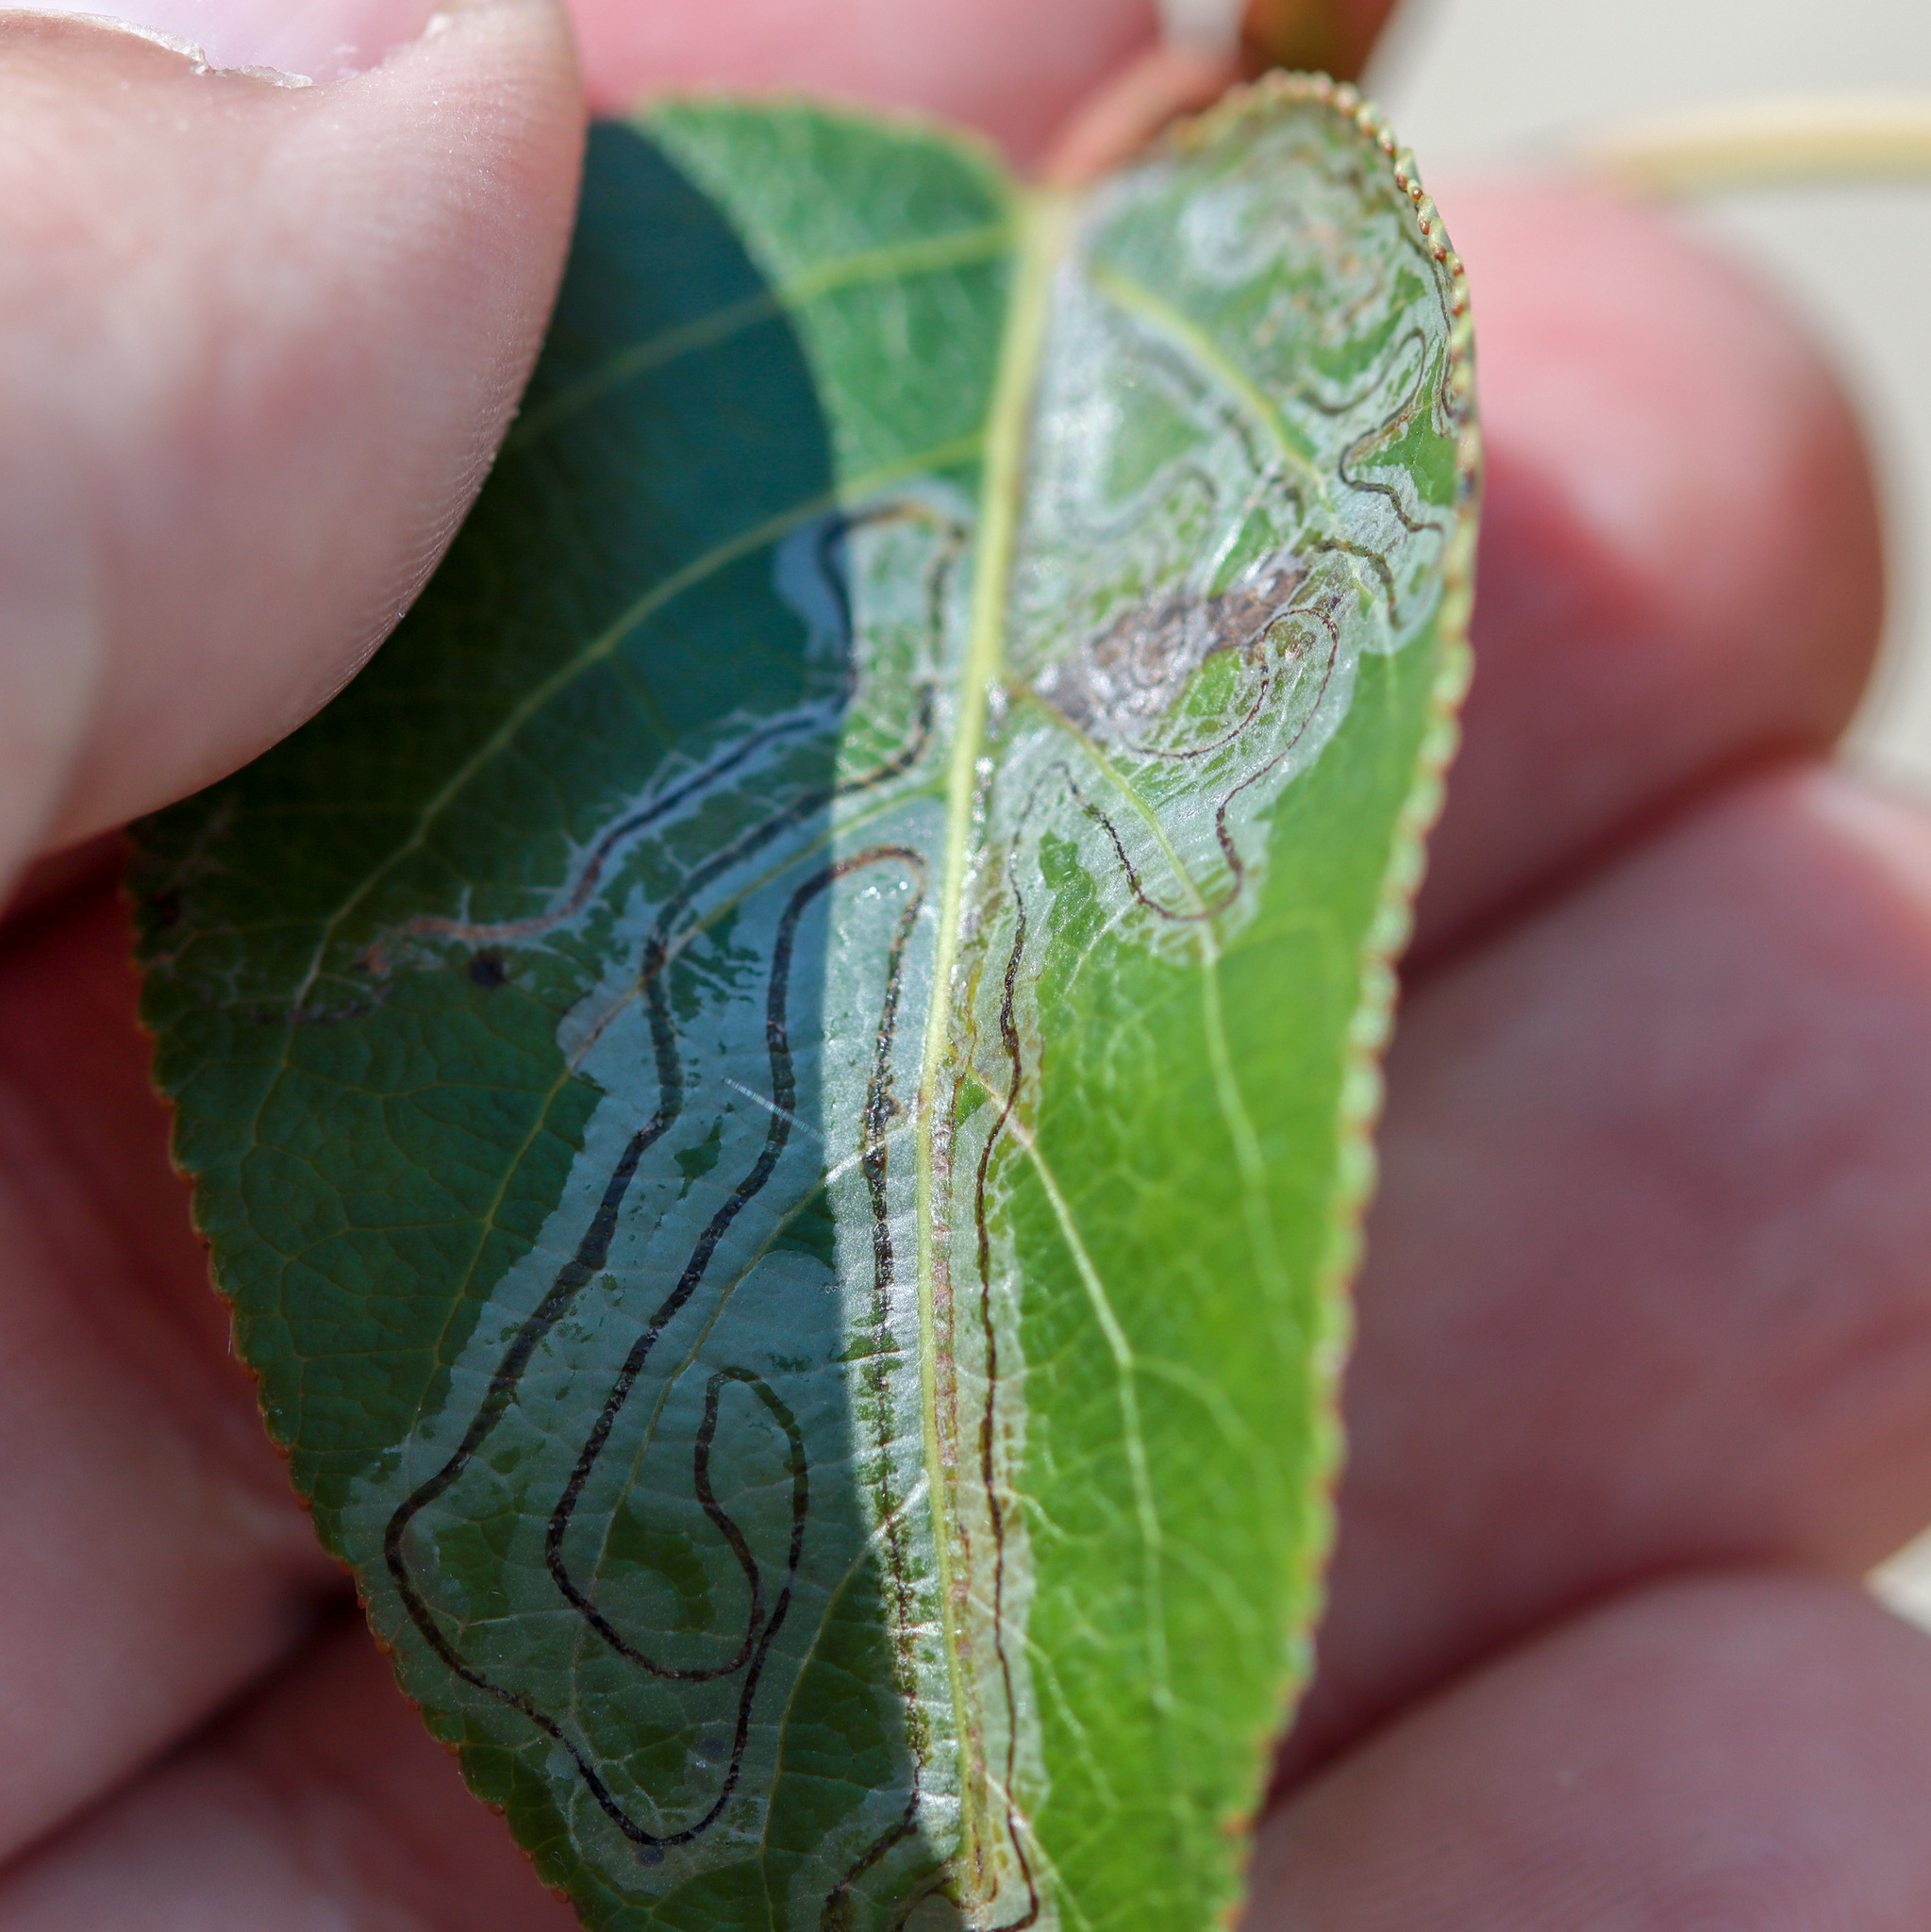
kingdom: Animalia
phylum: Arthropoda
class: Insecta
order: Lepidoptera
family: Gracillariidae
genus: Phyllocnistis
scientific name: Phyllocnistis populiella
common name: Aspen serpentine leafminer moth
